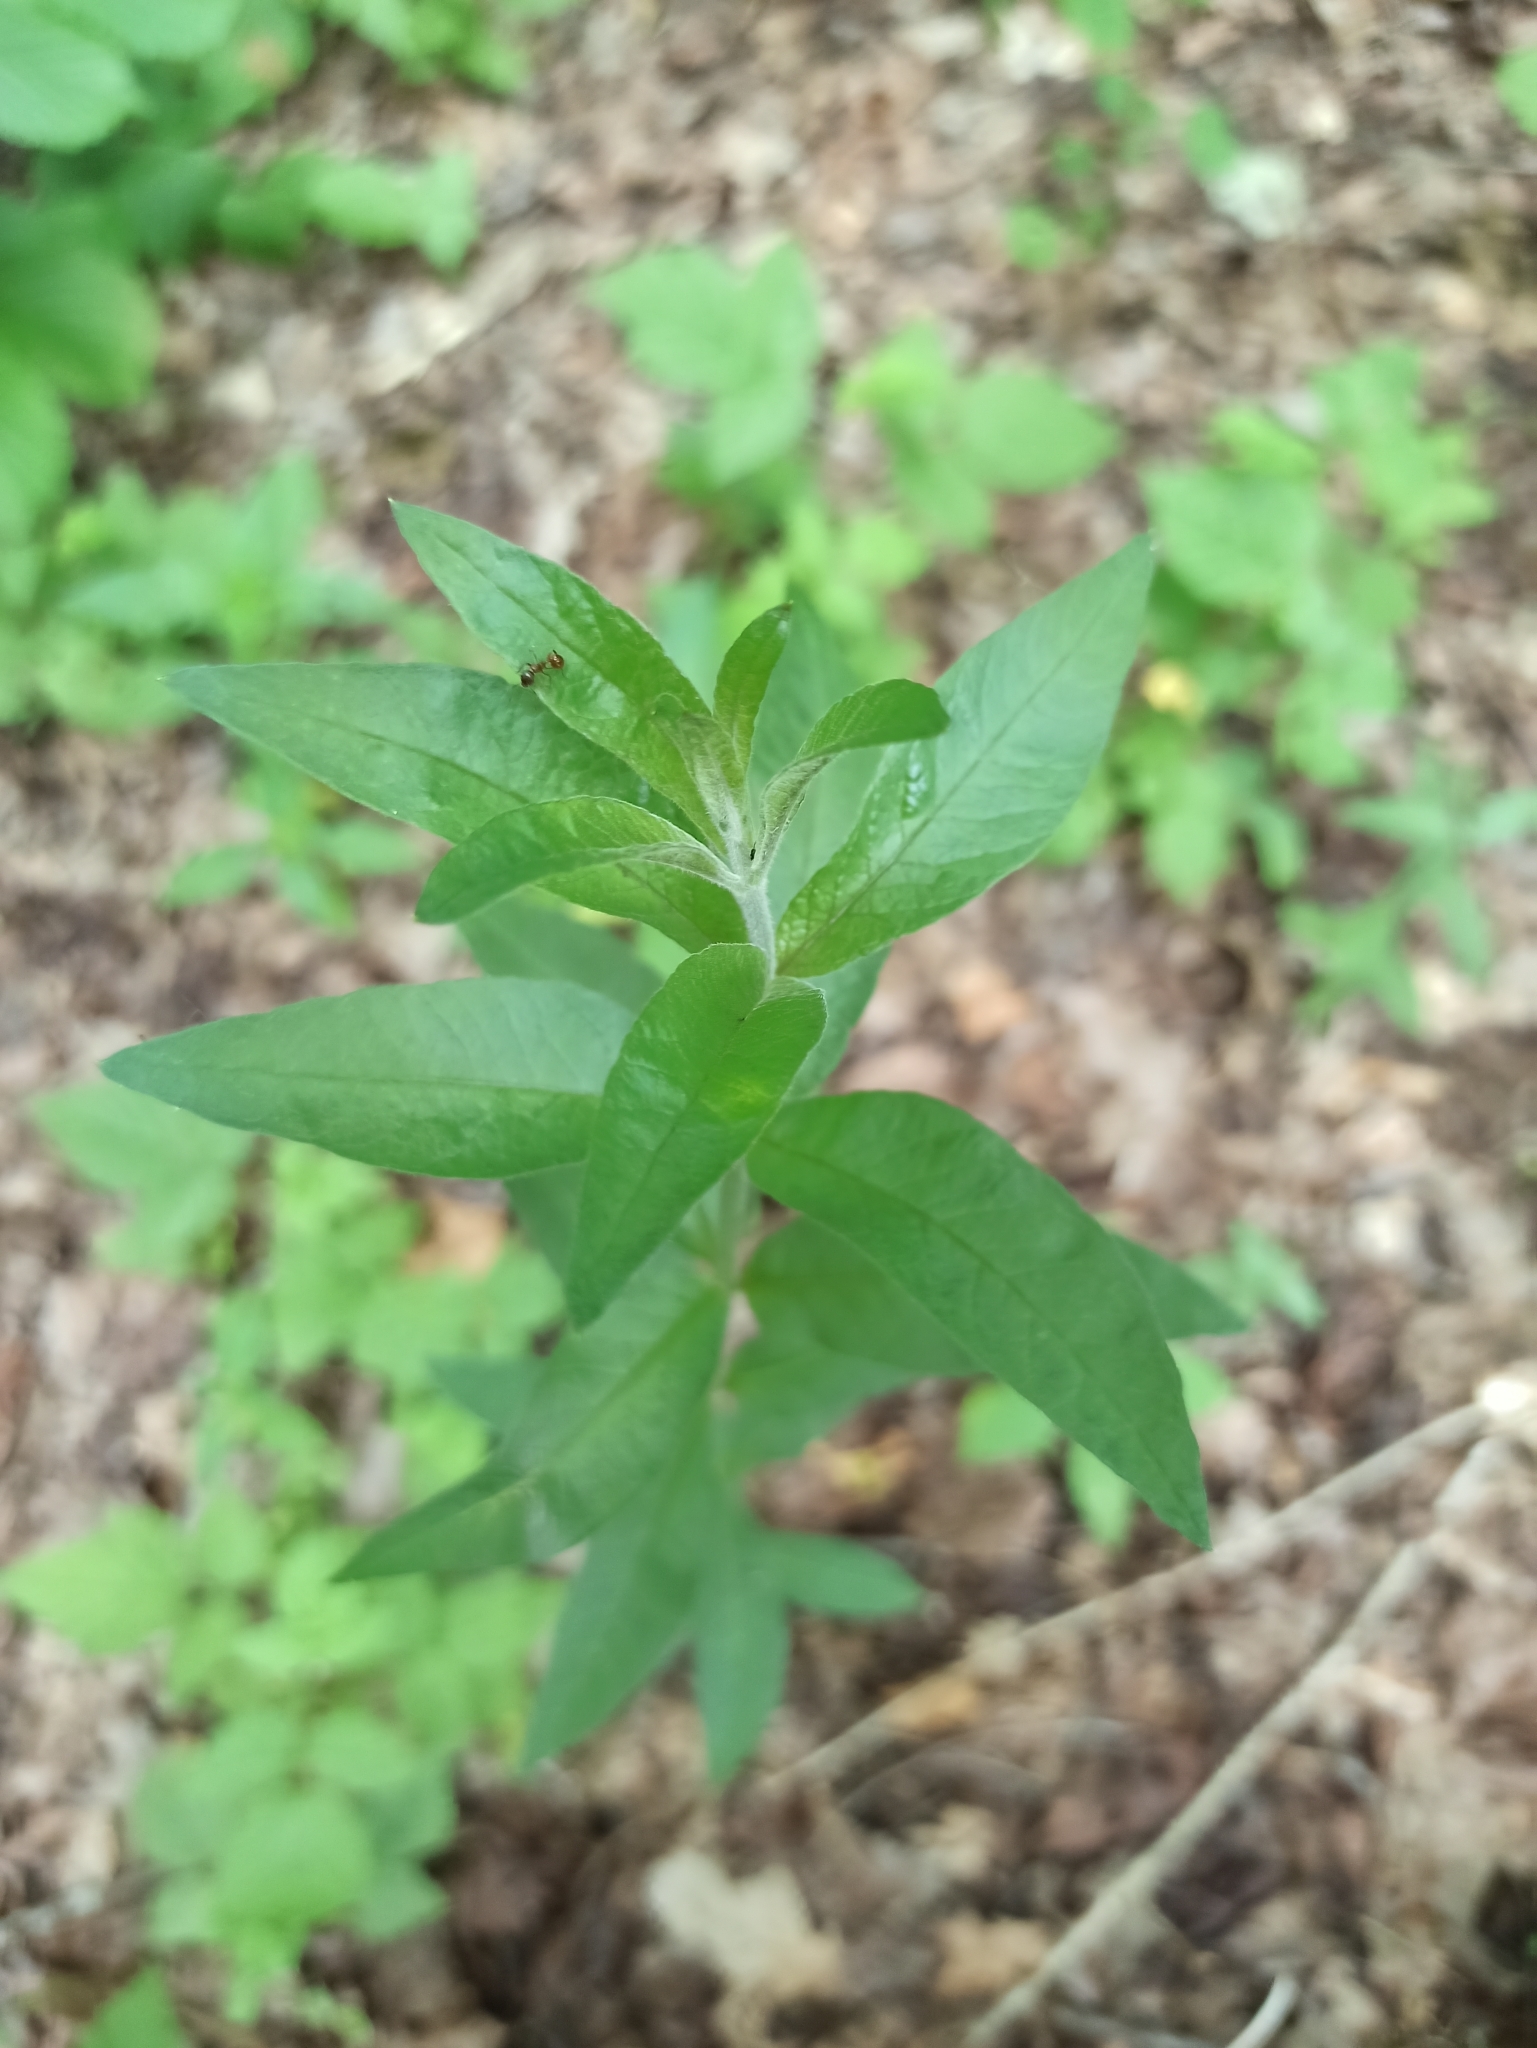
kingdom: Plantae
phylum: Tracheophyta
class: Magnoliopsida
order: Ericales
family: Primulaceae
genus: Lysimachia
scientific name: Lysimachia vulgaris
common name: Yellow loosestrife
